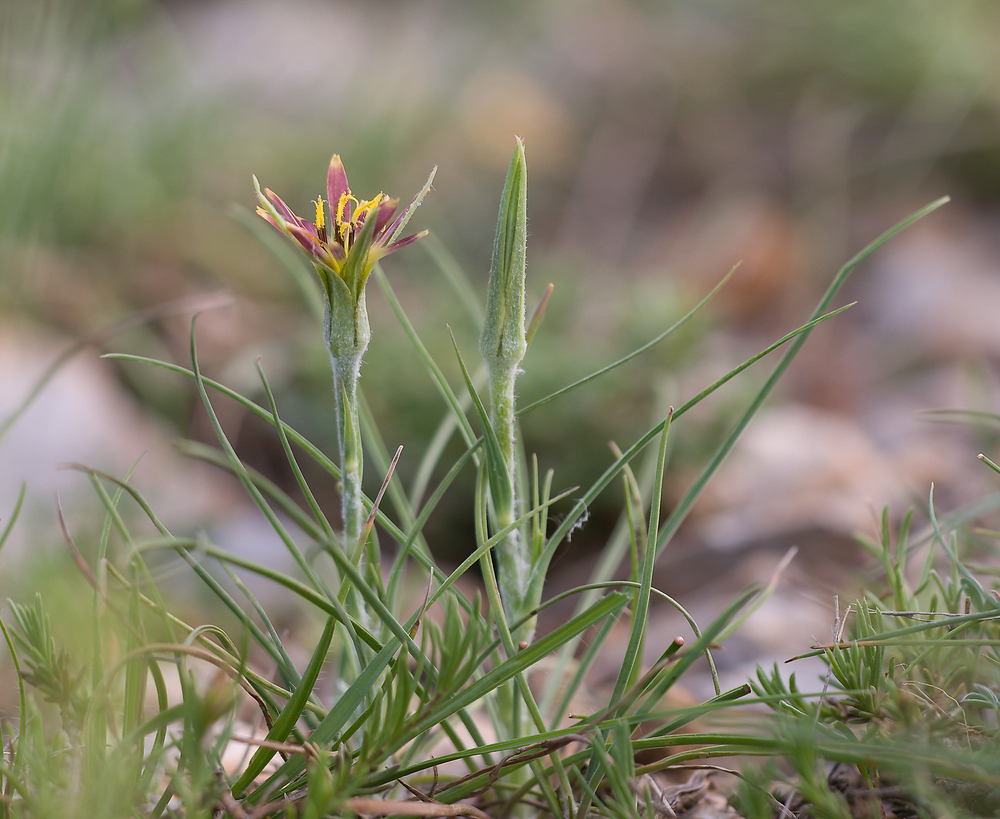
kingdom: Plantae
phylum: Tracheophyta
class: Magnoliopsida
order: Asterales
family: Asteraceae
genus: Tragopogon
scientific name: Tragopogon crocifolius
